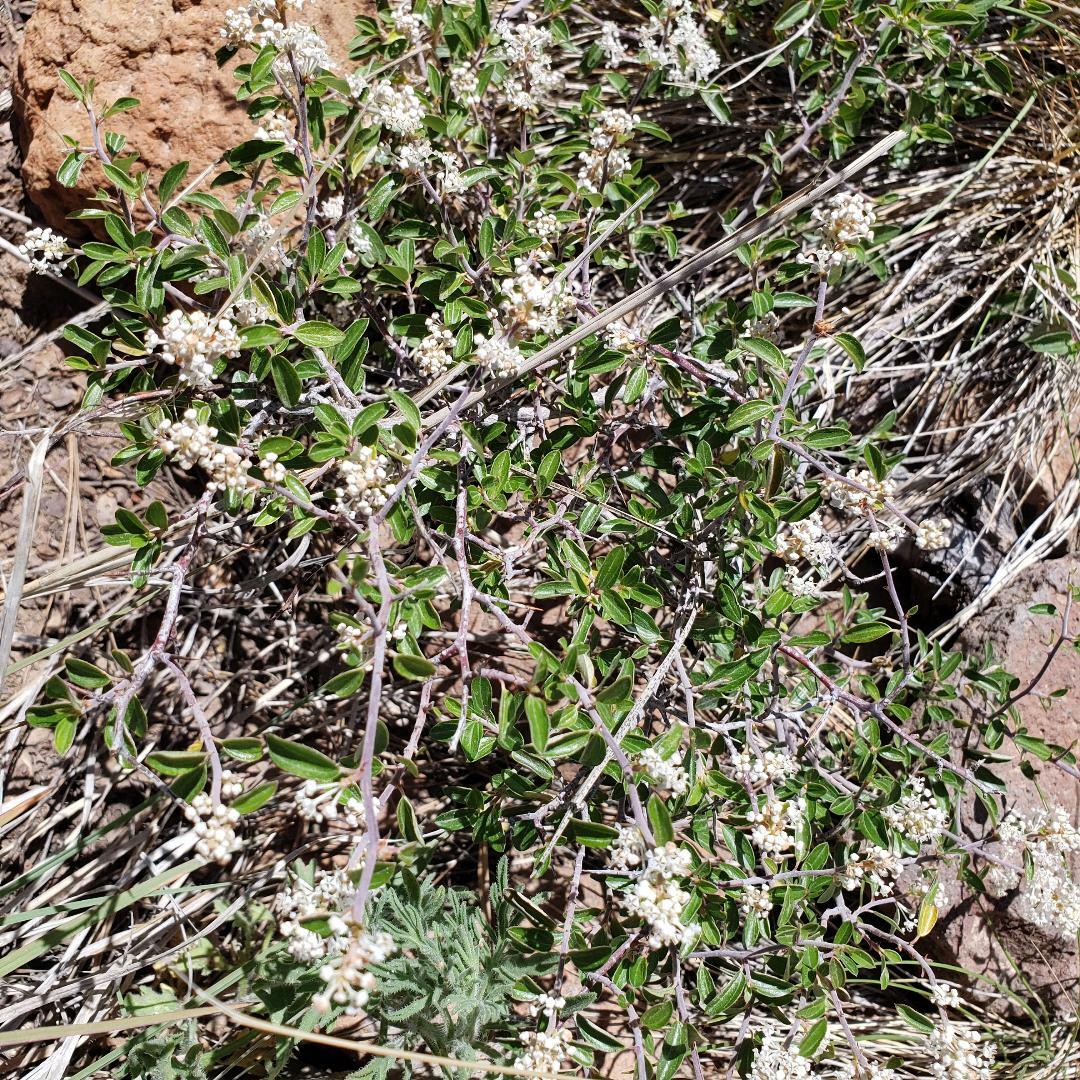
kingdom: Plantae
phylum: Tracheophyta
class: Magnoliopsida
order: Rosales
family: Rhamnaceae
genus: Ceanothus
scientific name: Ceanothus fendleri
